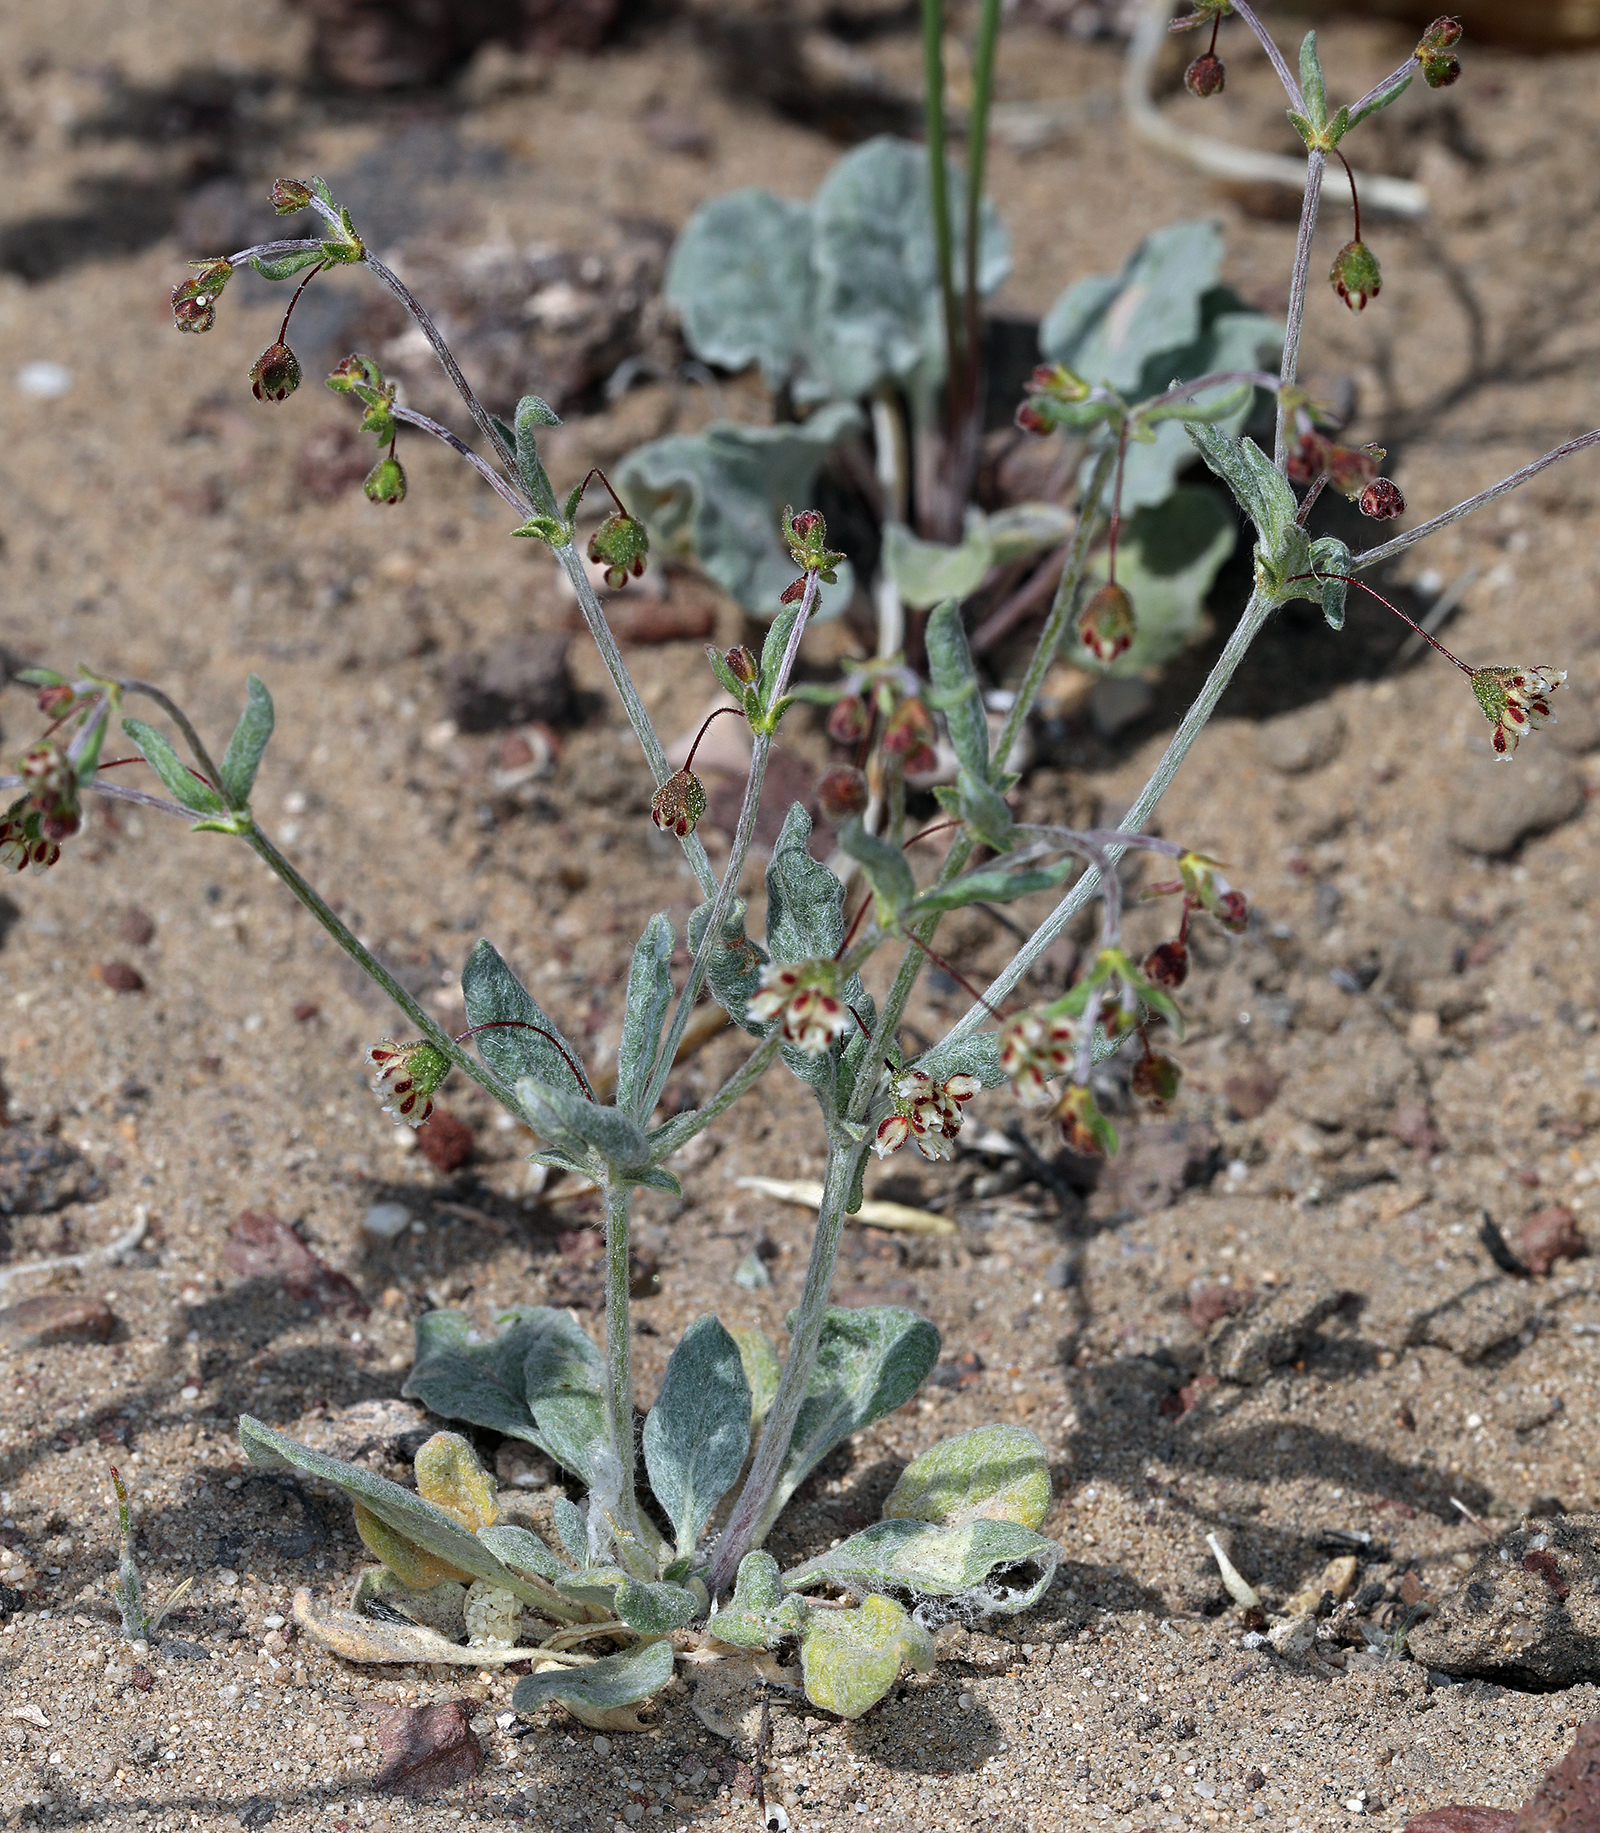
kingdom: Plantae
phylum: Tracheophyta
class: Magnoliopsida
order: Caryophyllales
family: Polygonaceae
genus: Eriogonum
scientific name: Eriogonum maculatum
